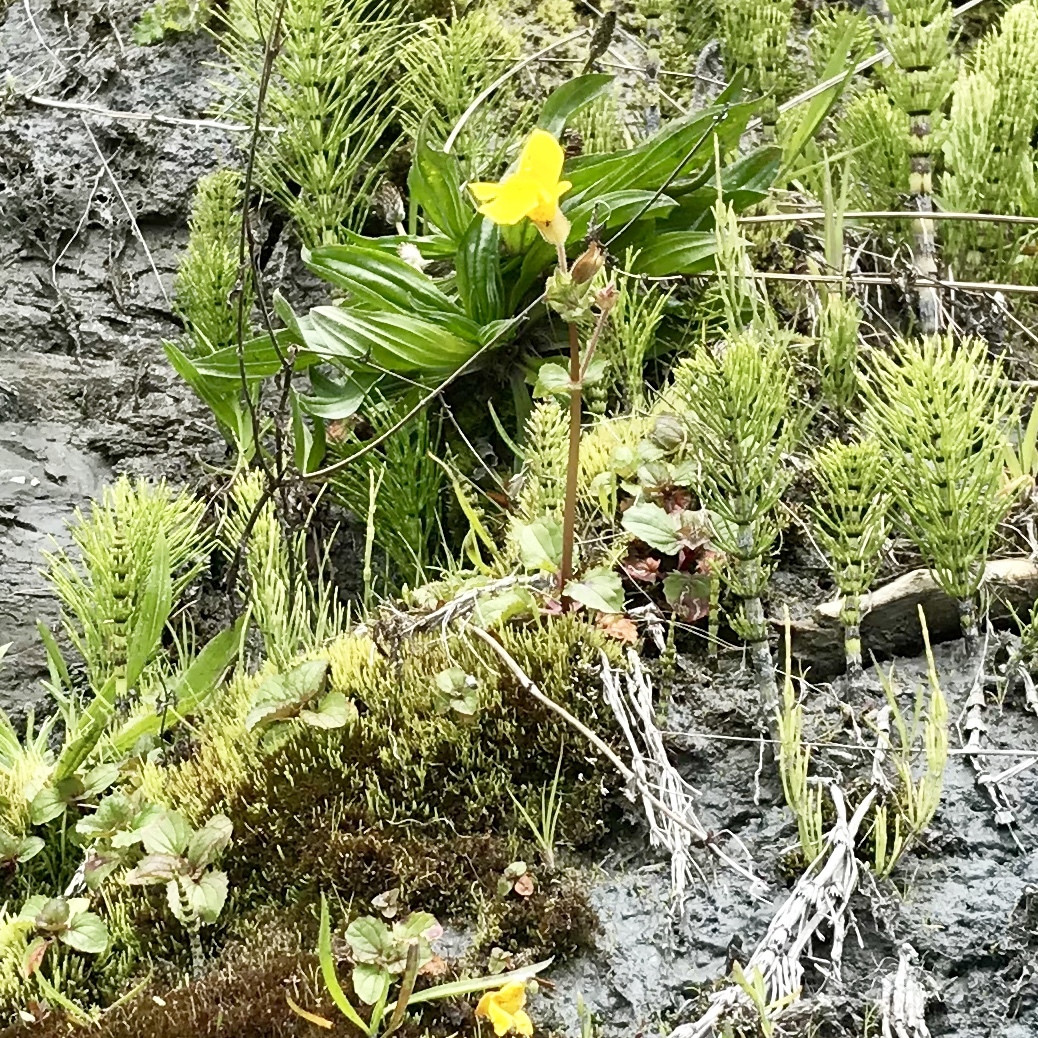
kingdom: Plantae
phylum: Tracheophyta
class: Magnoliopsida
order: Lamiales
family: Phrymaceae
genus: Erythranthe
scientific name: Erythranthe guttata
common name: Monkeyflower
